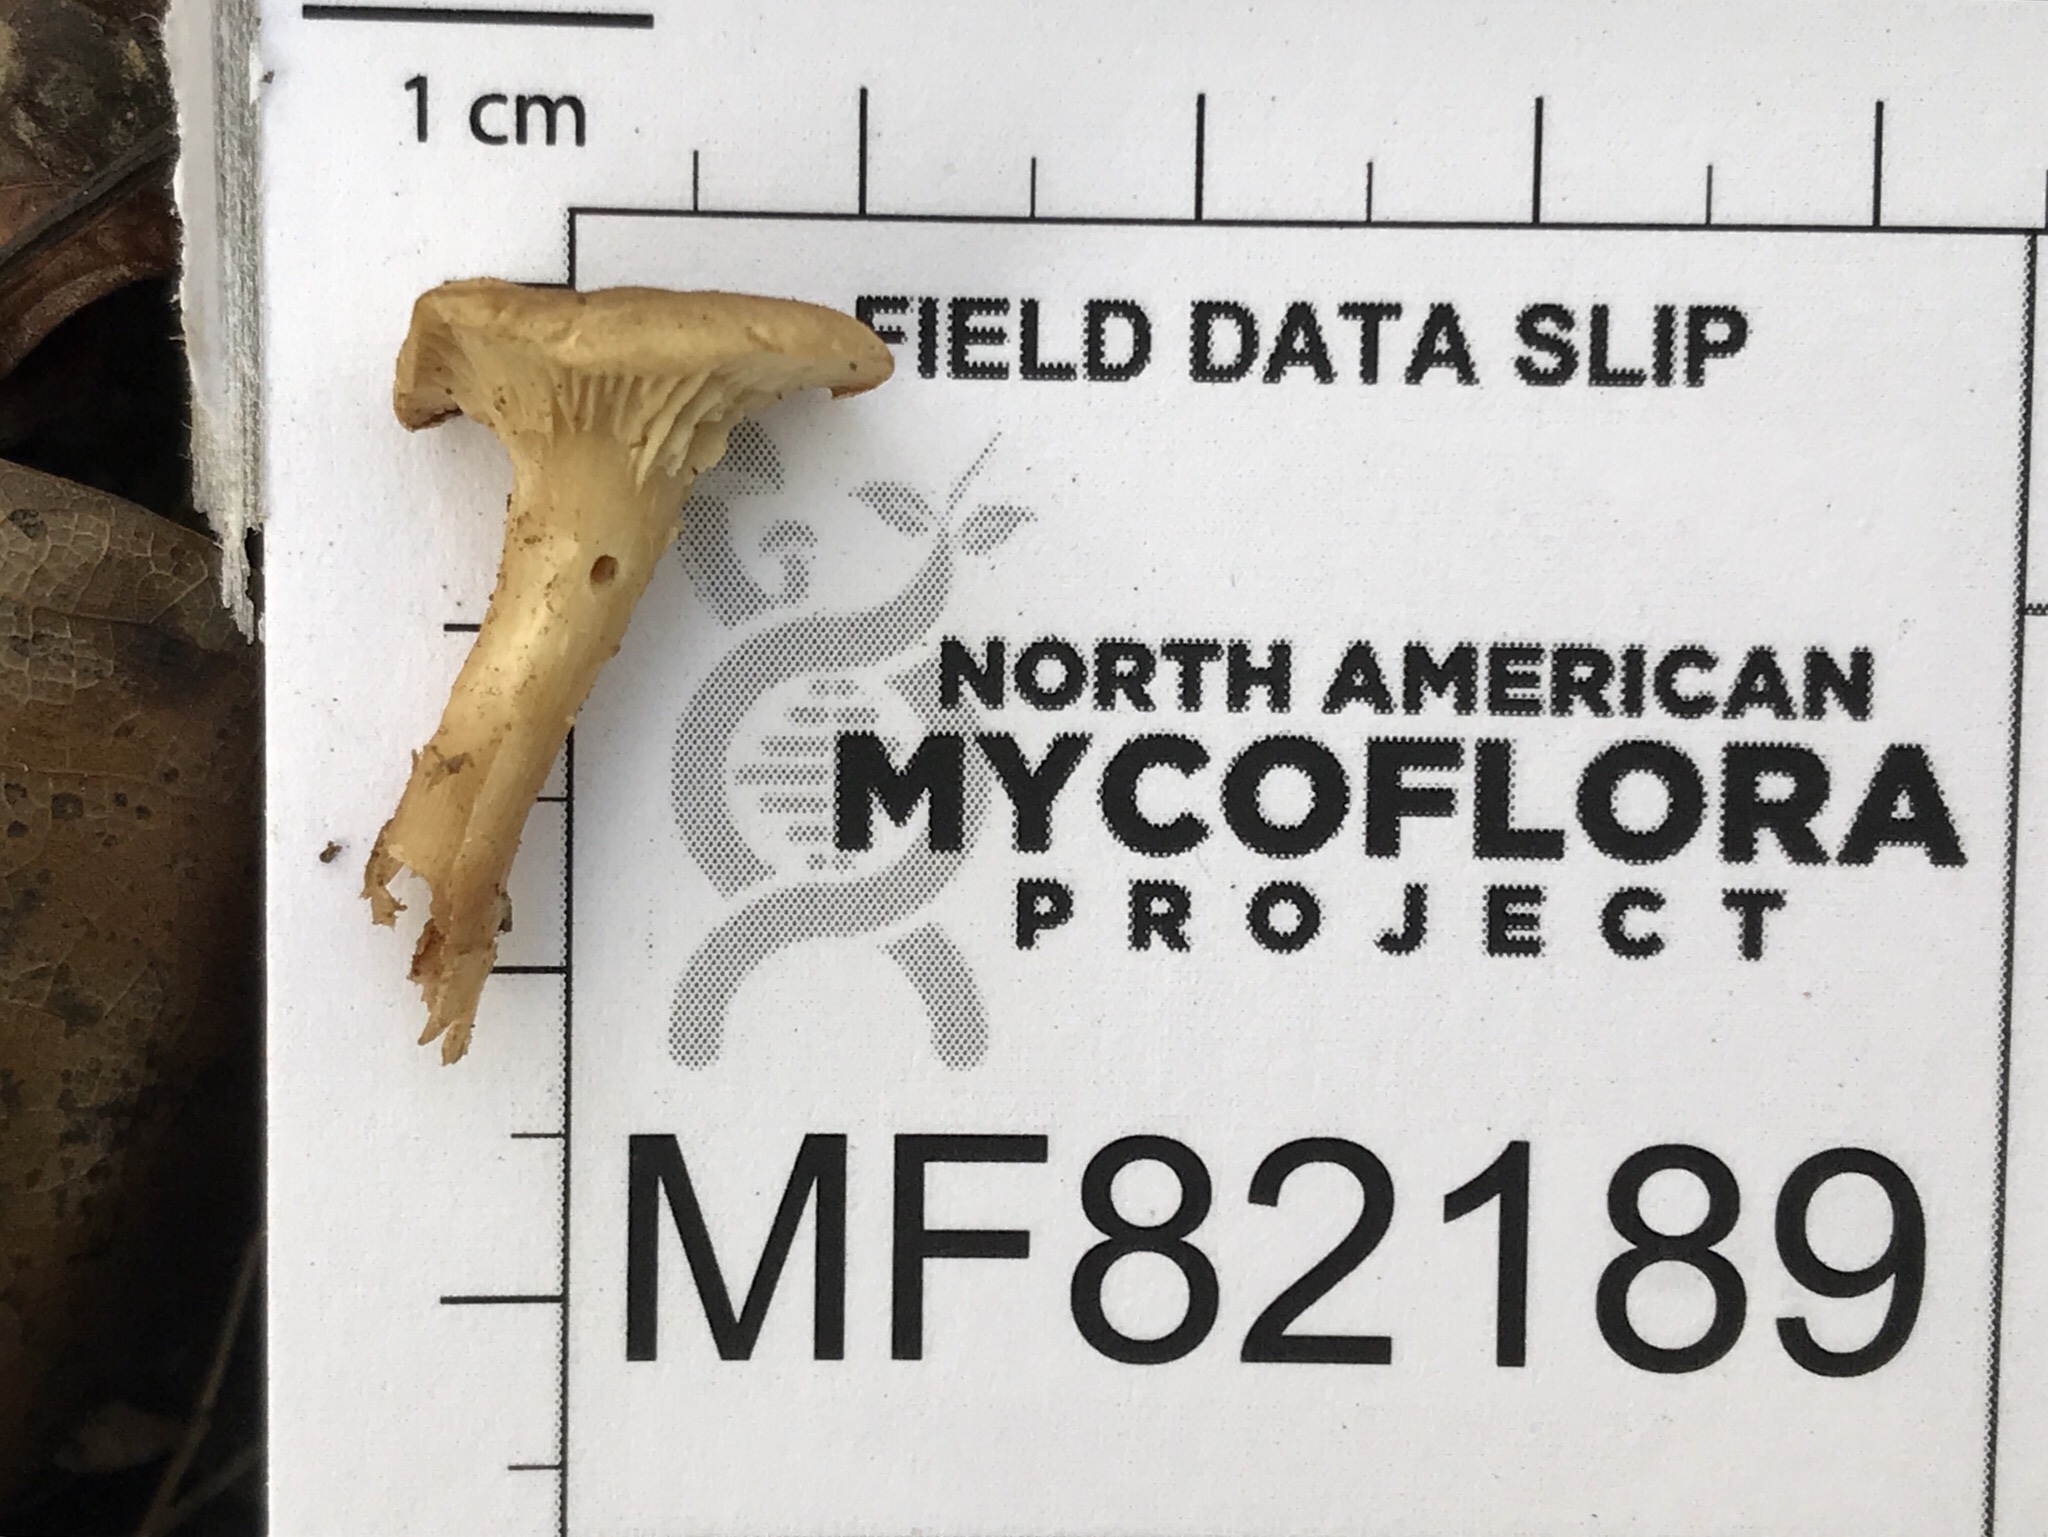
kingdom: Fungi
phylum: Basidiomycota
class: Agaricomycetes
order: Agaricales
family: Tricholomataceae
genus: Clitocybe
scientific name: Clitocybe nebularis
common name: Clouded agaric
